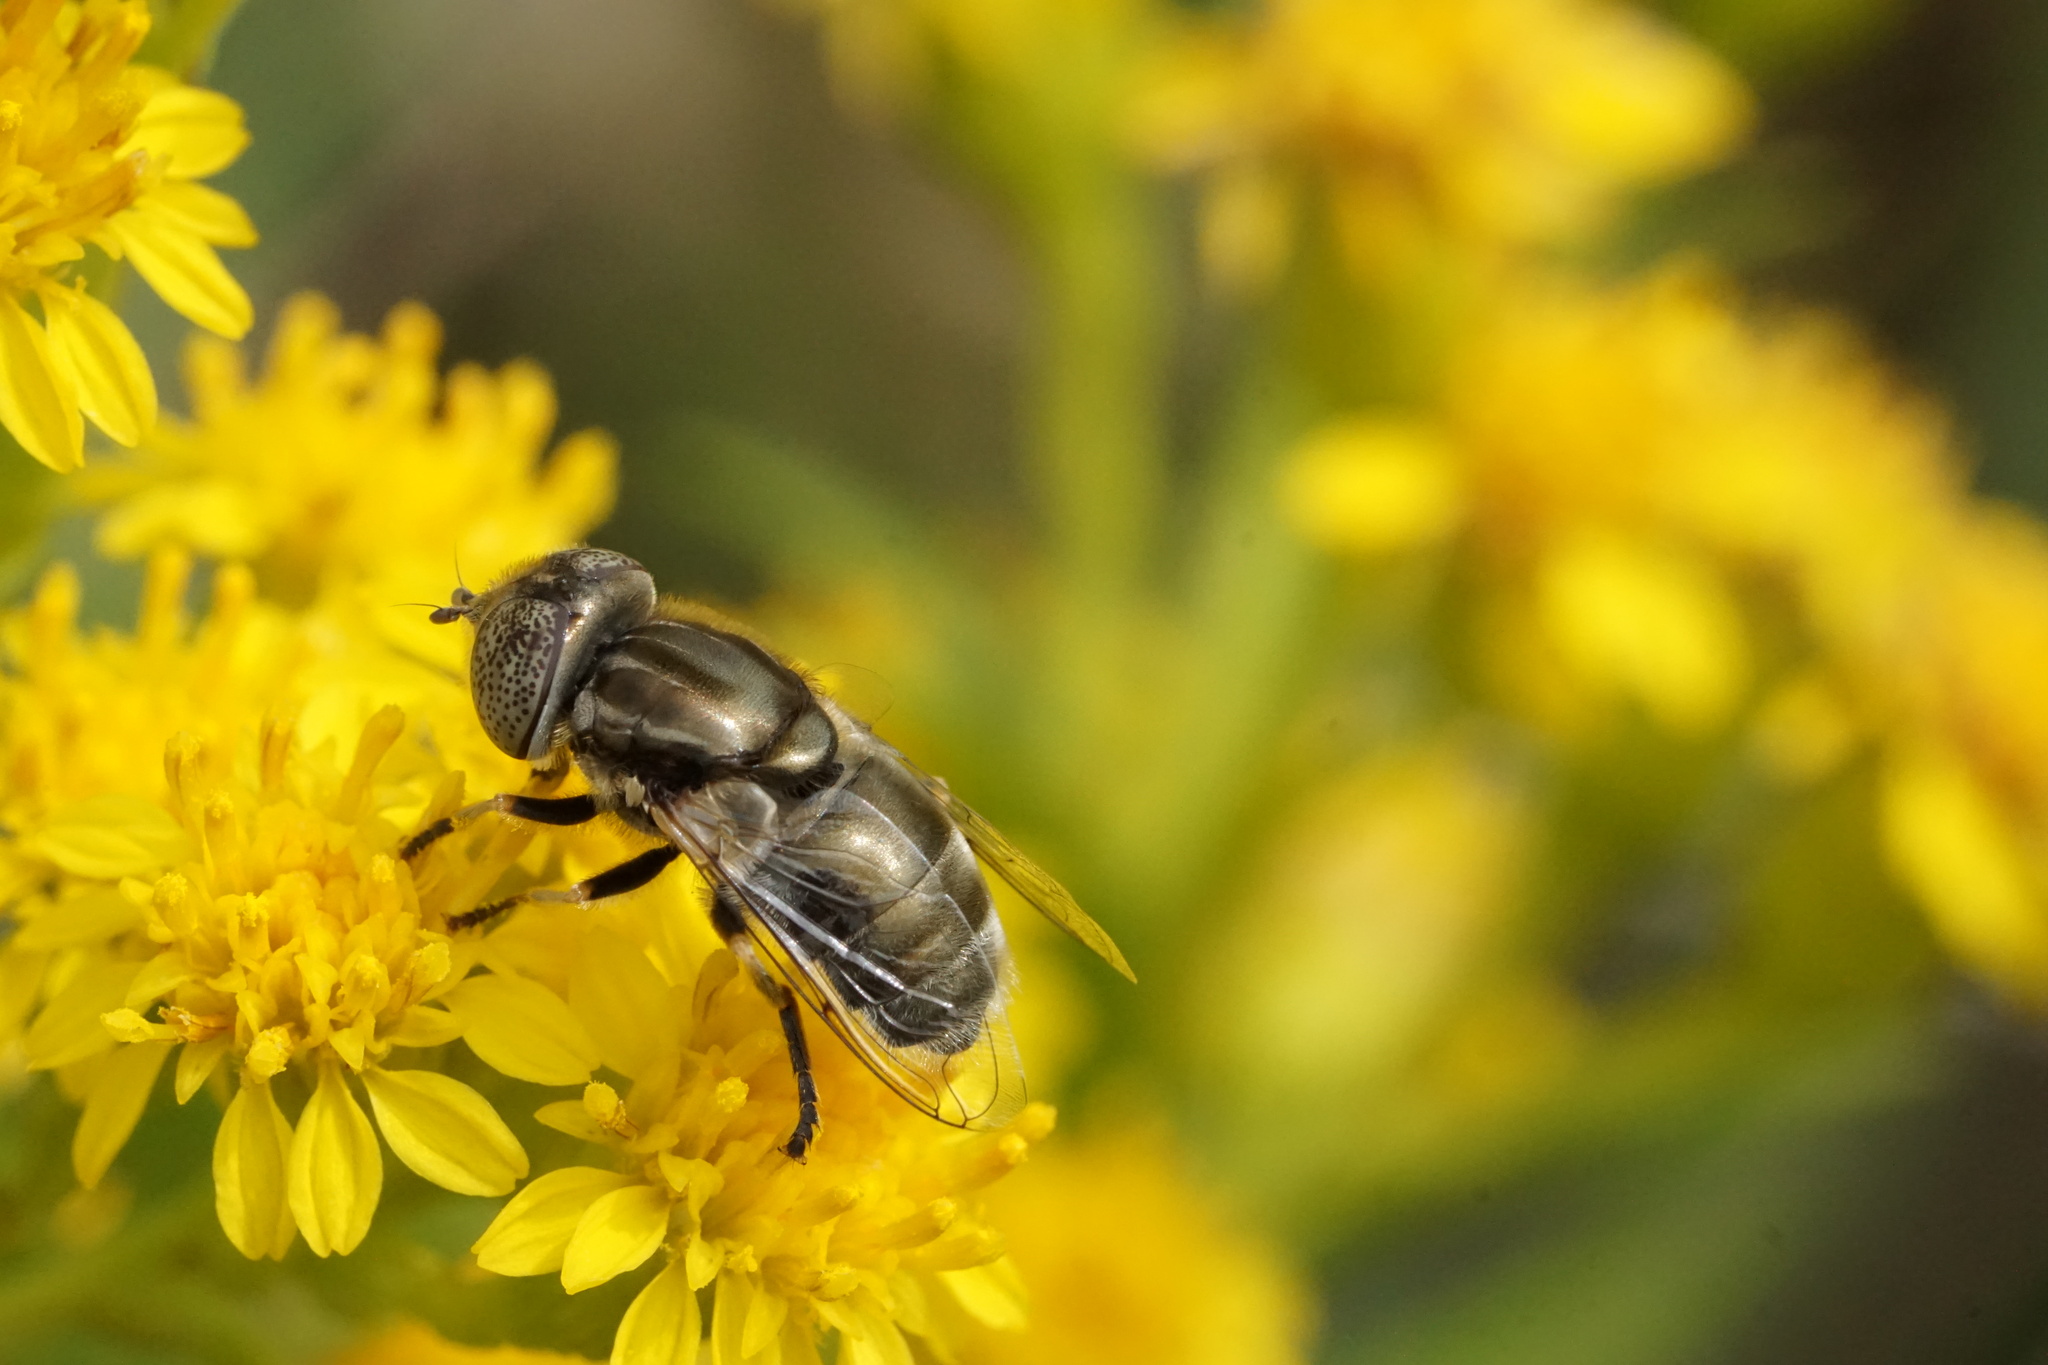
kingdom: Animalia
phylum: Arthropoda
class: Insecta
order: Diptera
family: Syrphidae
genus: Eristalinus
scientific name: Eristalinus aeneus
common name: Syrphid fly
